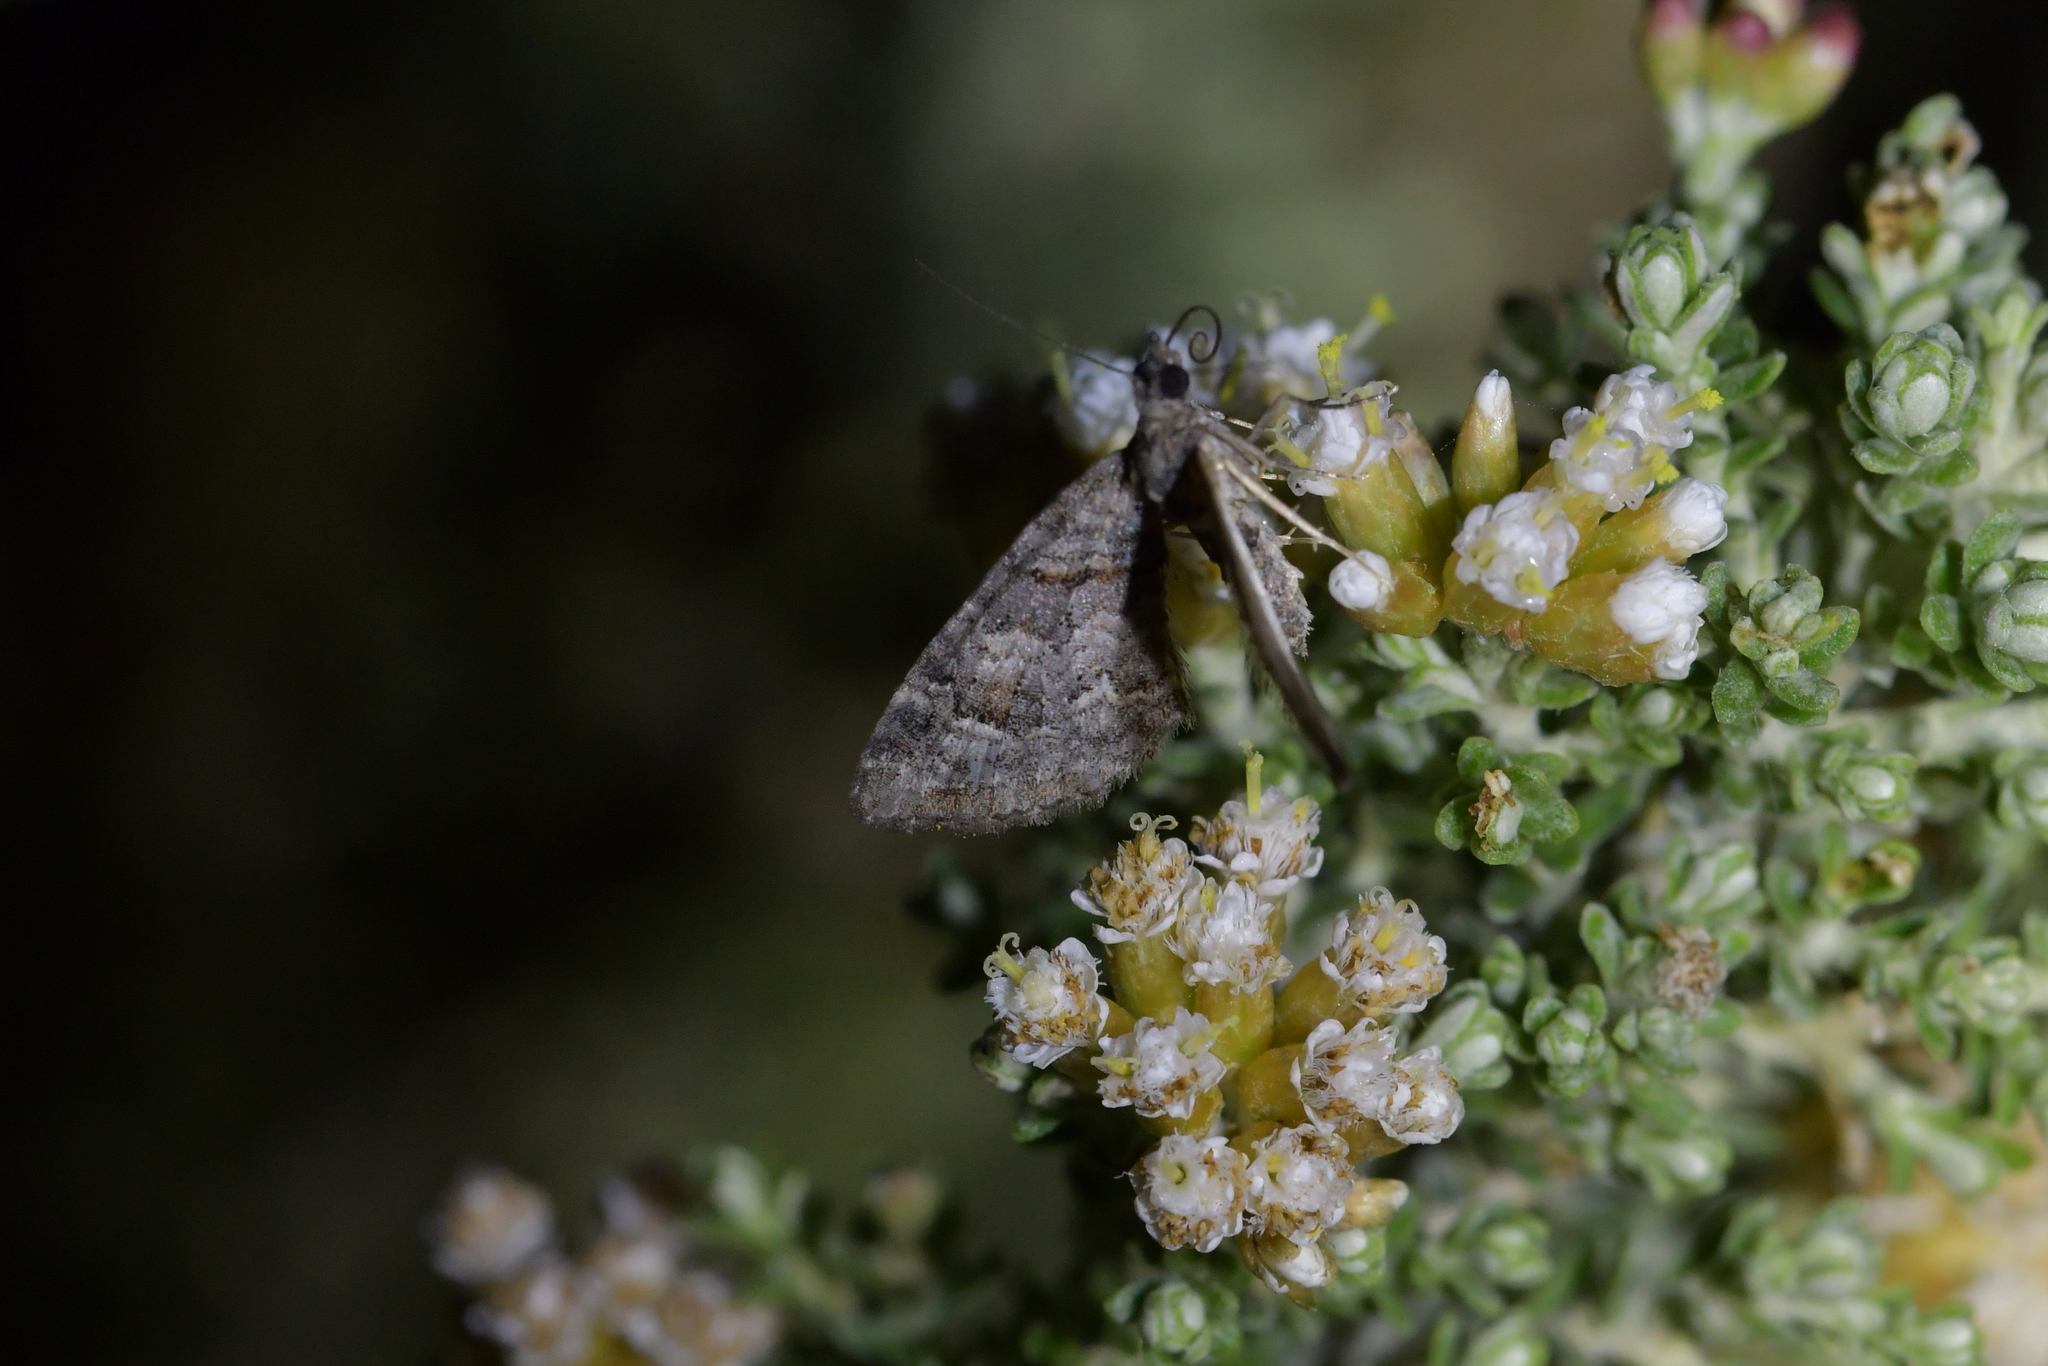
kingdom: Animalia
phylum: Arthropoda
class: Insecta
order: Lepidoptera
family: Geometridae
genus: Phrissogonus
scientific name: Phrissogonus laticostata
